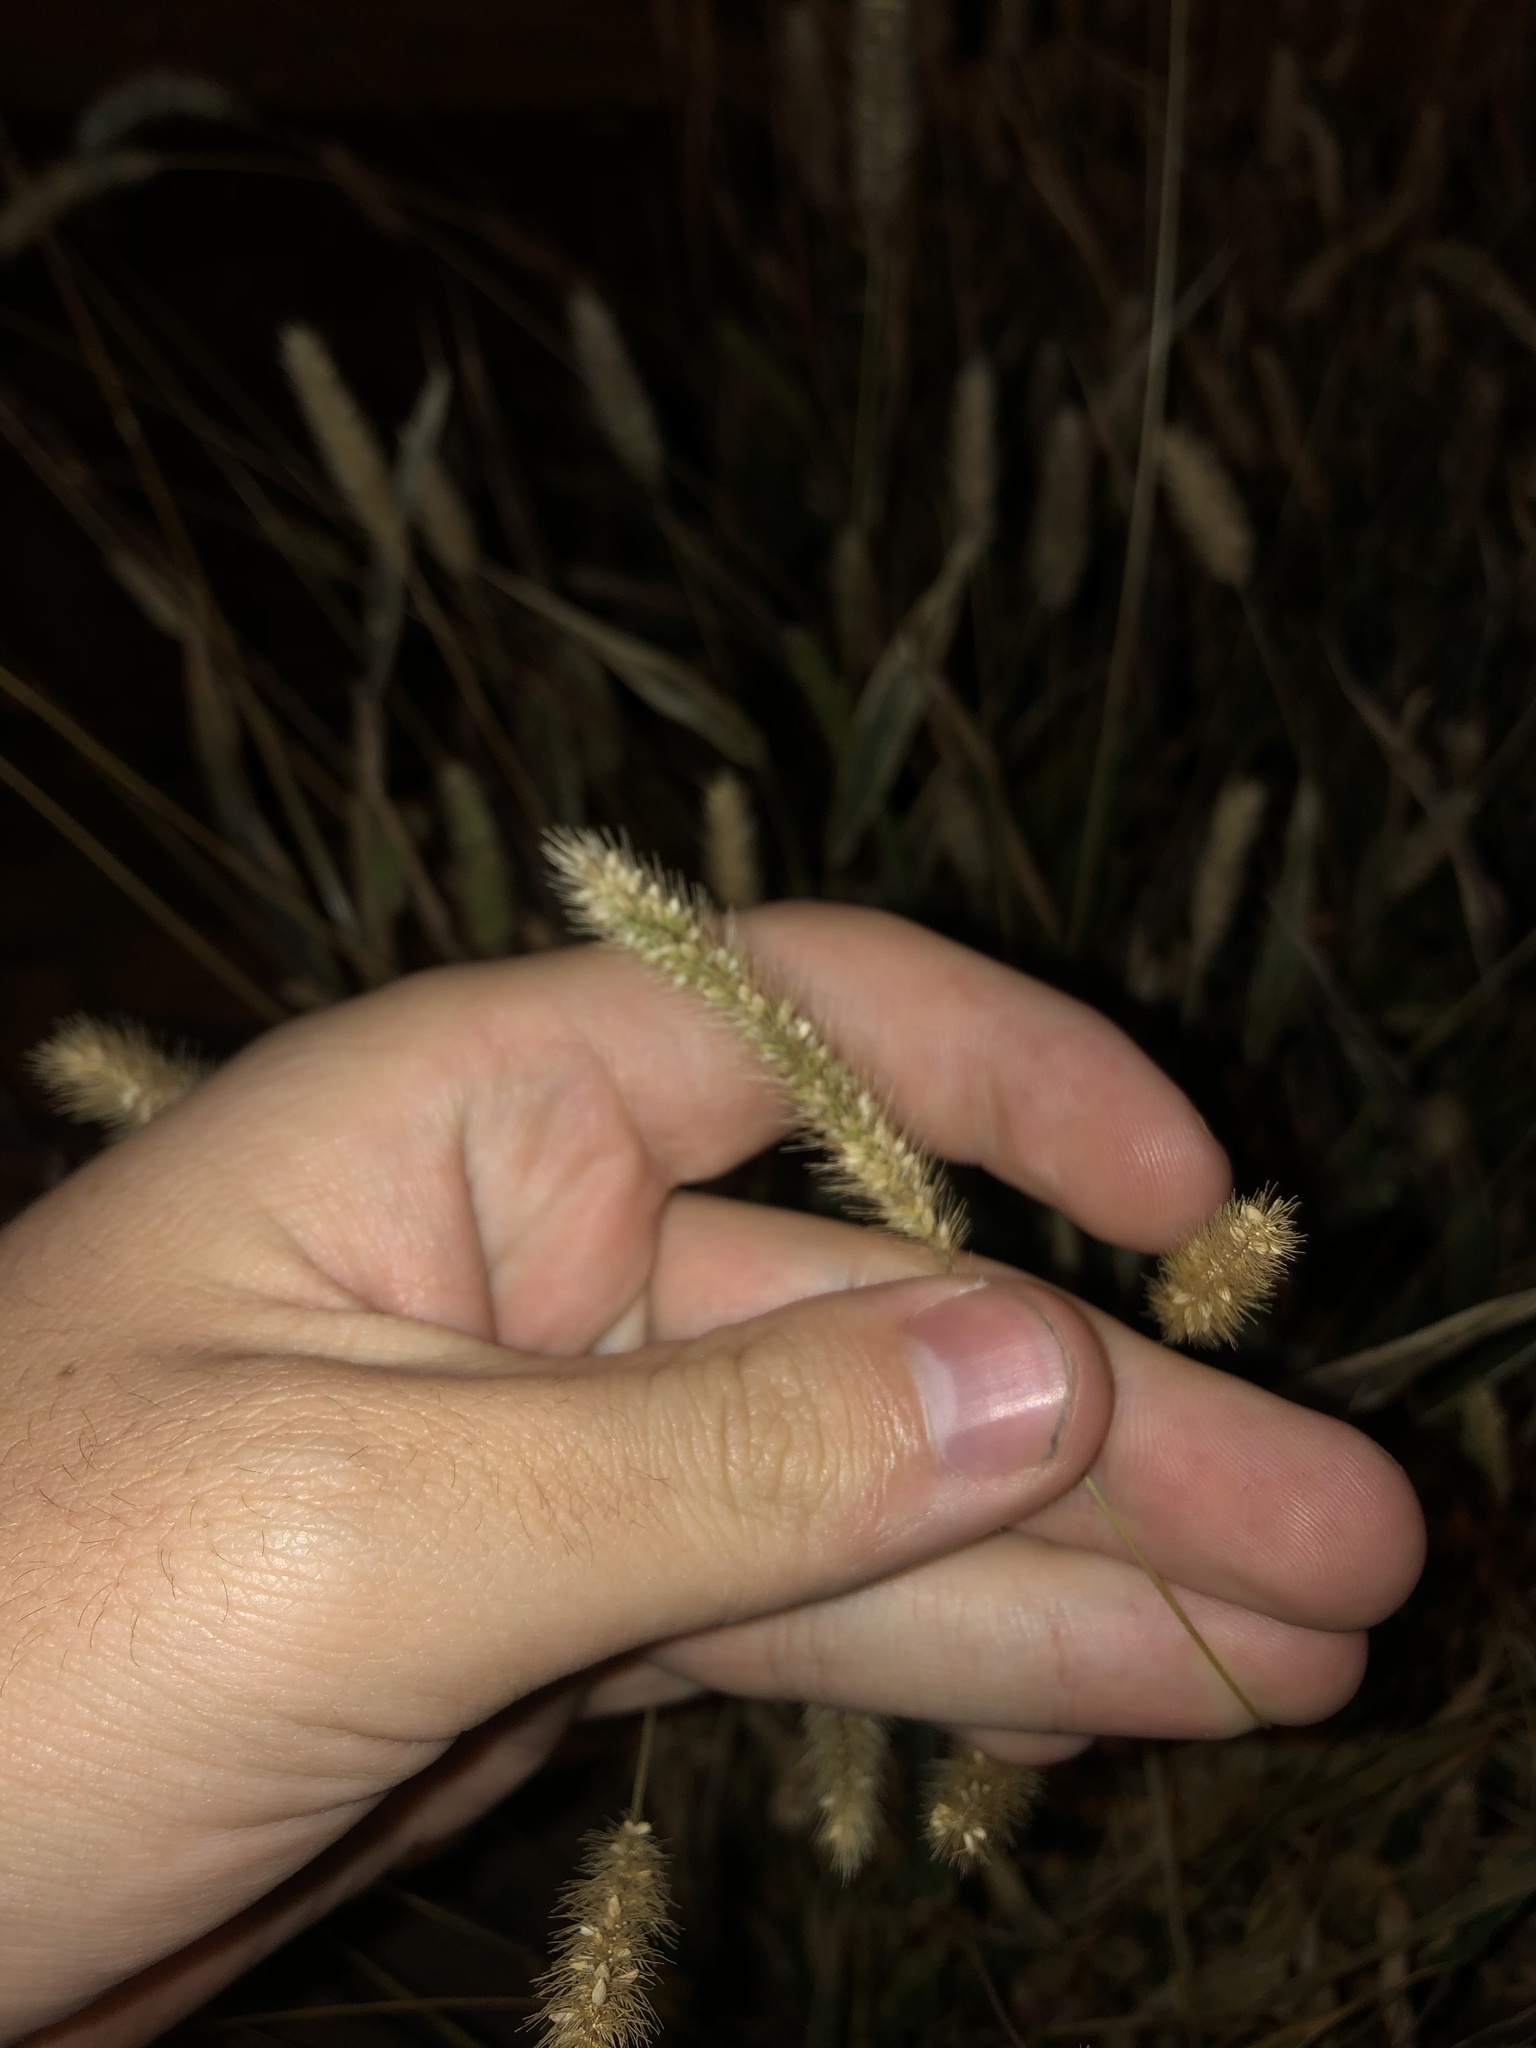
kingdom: Plantae
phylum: Tracheophyta
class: Liliopsida
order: Poales
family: Poaceae
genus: Setaria
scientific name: Setaria
